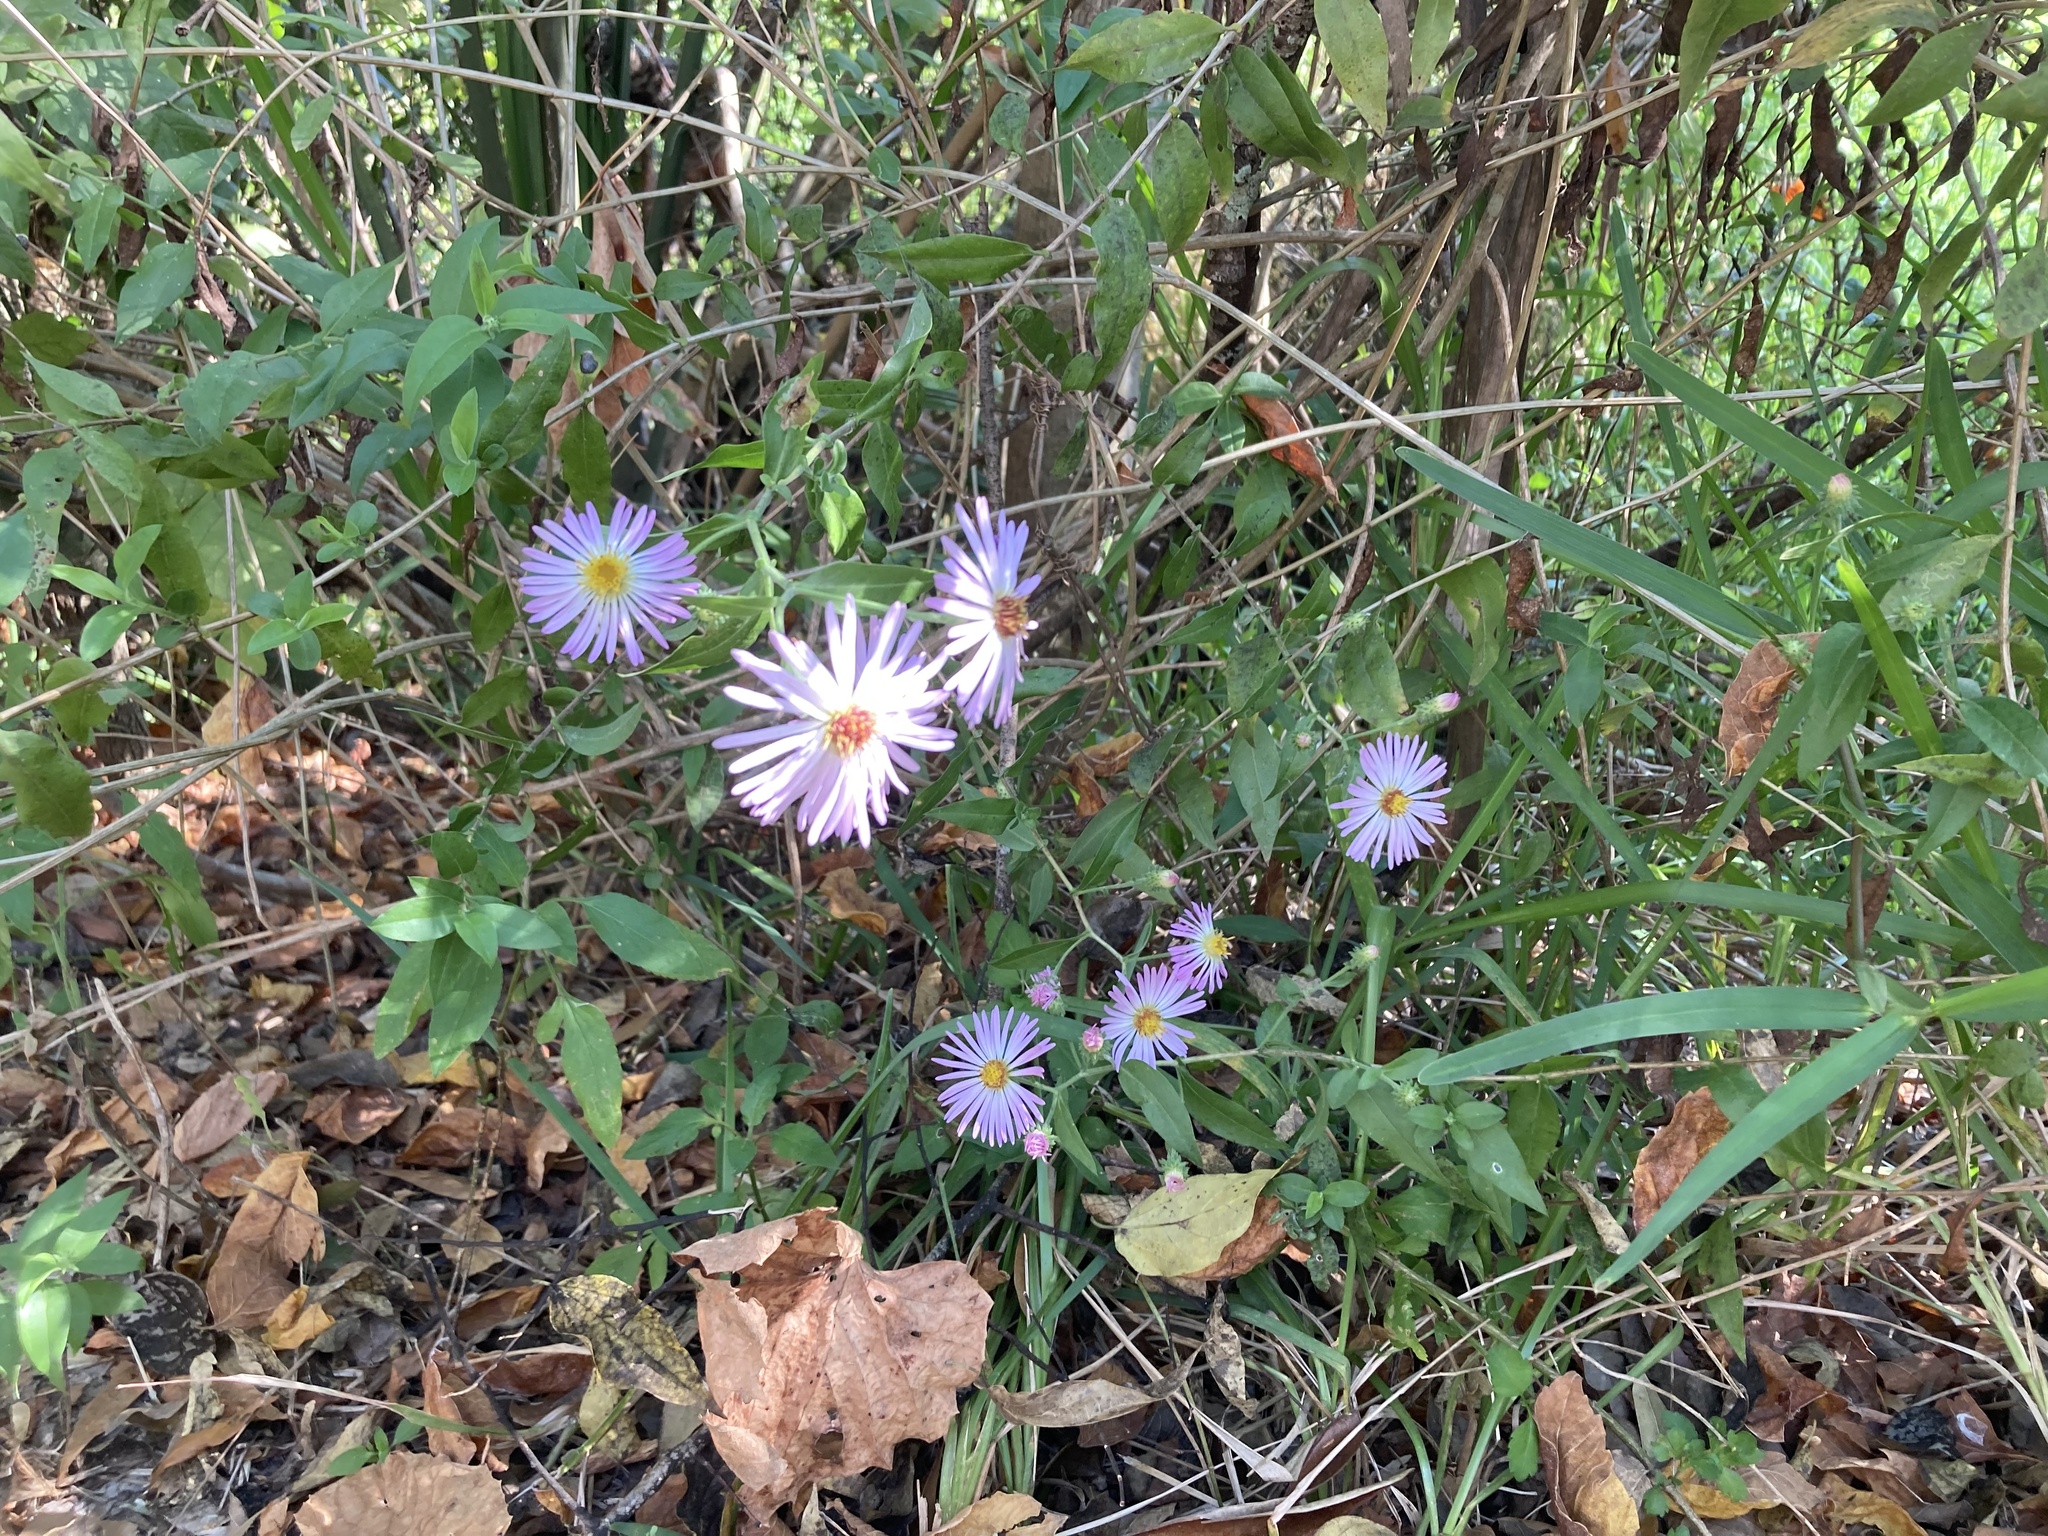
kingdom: Plantae
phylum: Tracheophyta
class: Magnoliopsida
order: Asterales
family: Asteraceae
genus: Ampelaster
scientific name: Ampelaster carolinianus
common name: Climbing aster
